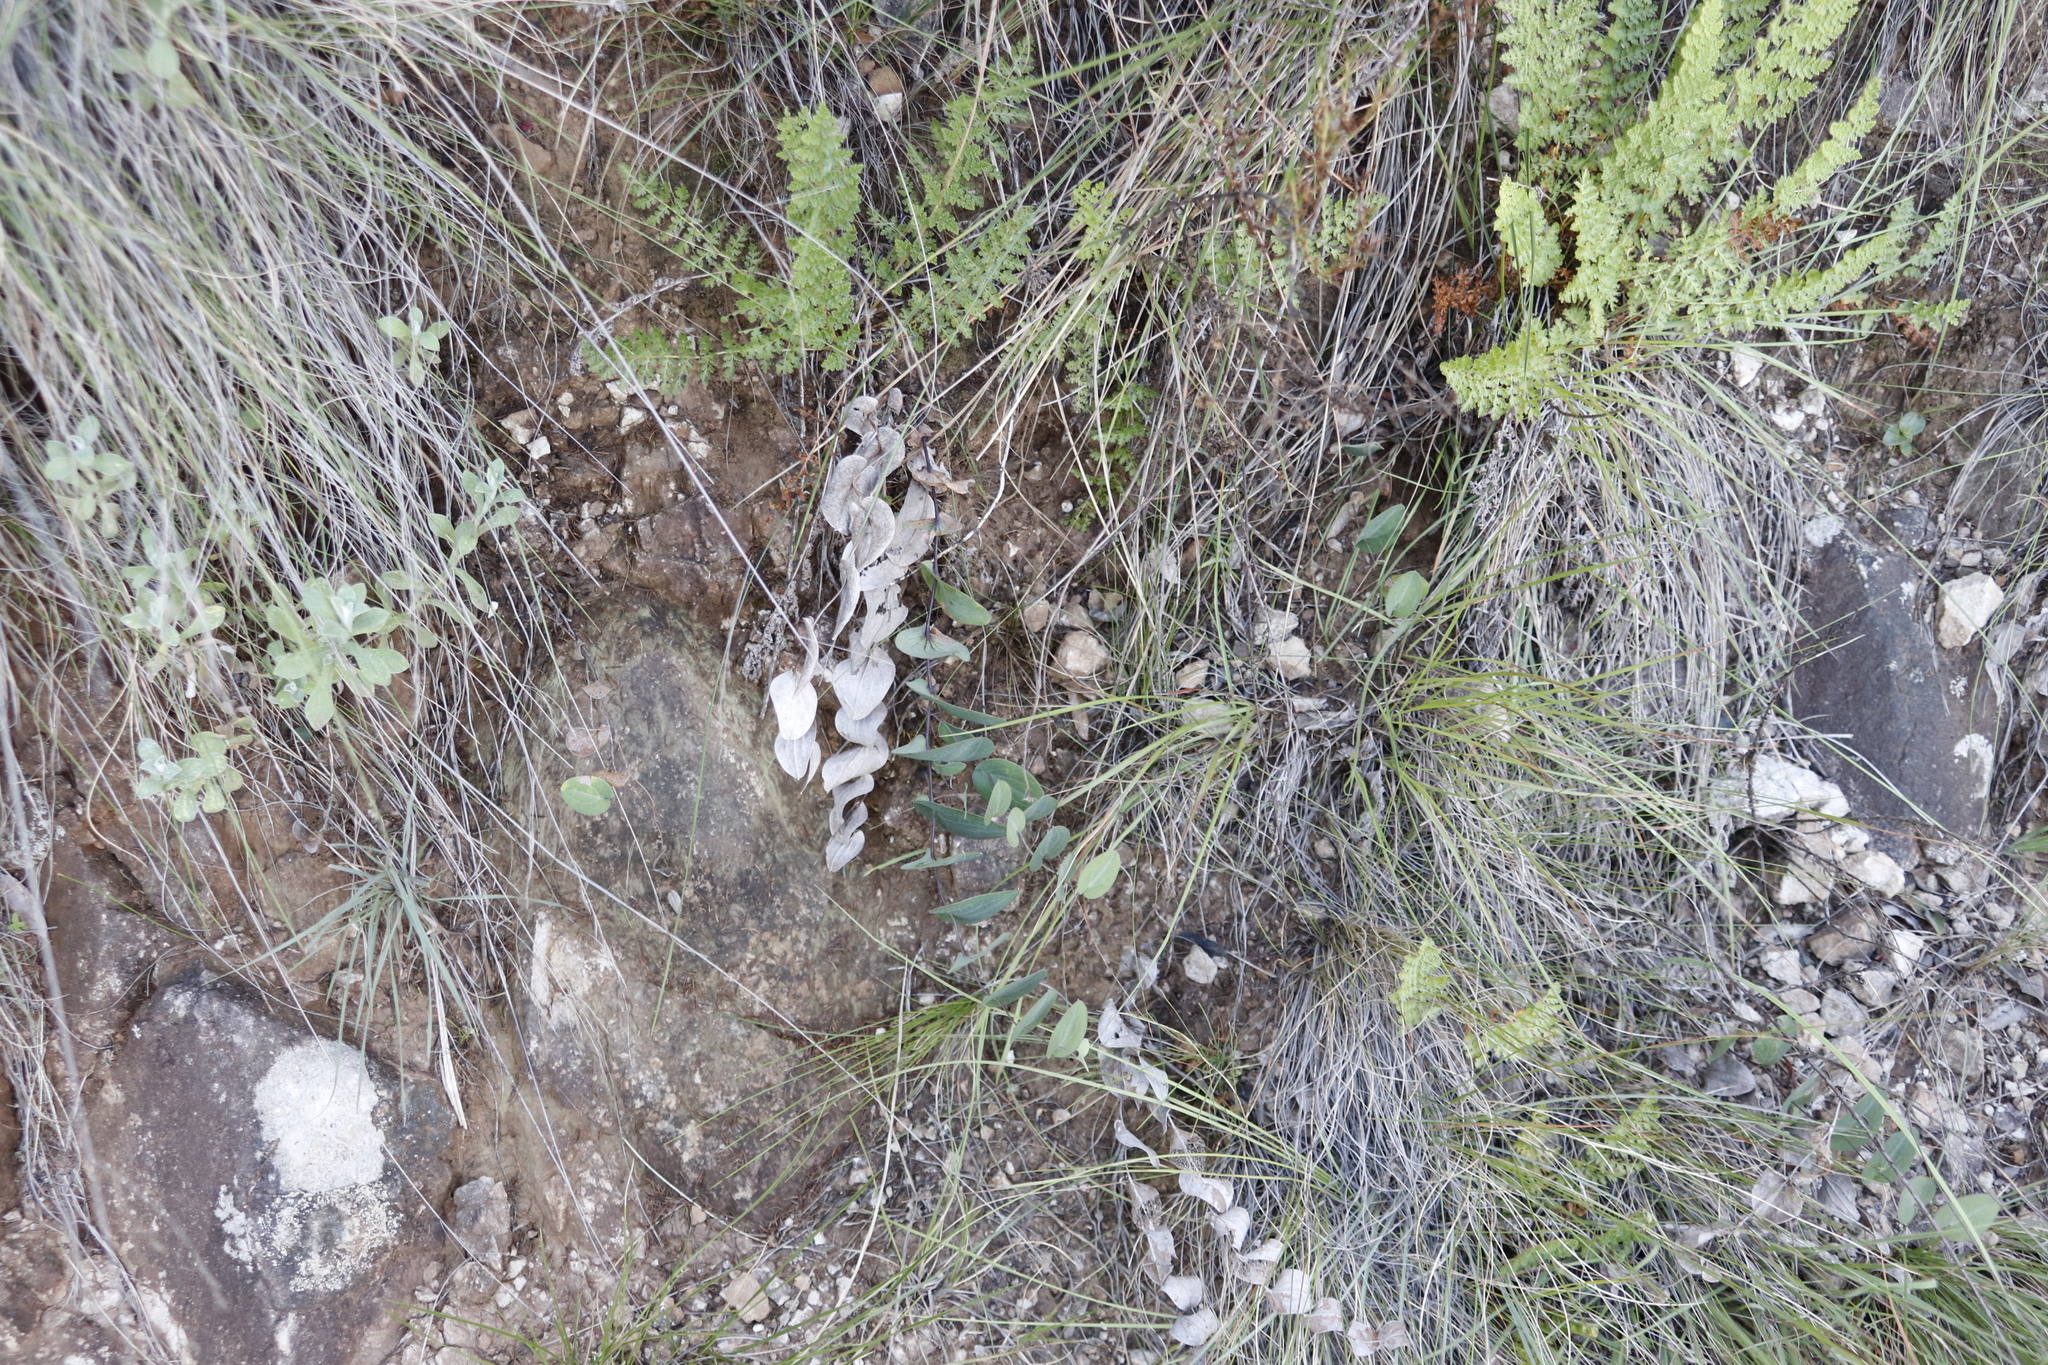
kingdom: Plantae
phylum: Tracheophyta
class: Magnoliopsida
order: Asterales
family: Asteraceae
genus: Afroaster
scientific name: Afroaster perfoliatus
